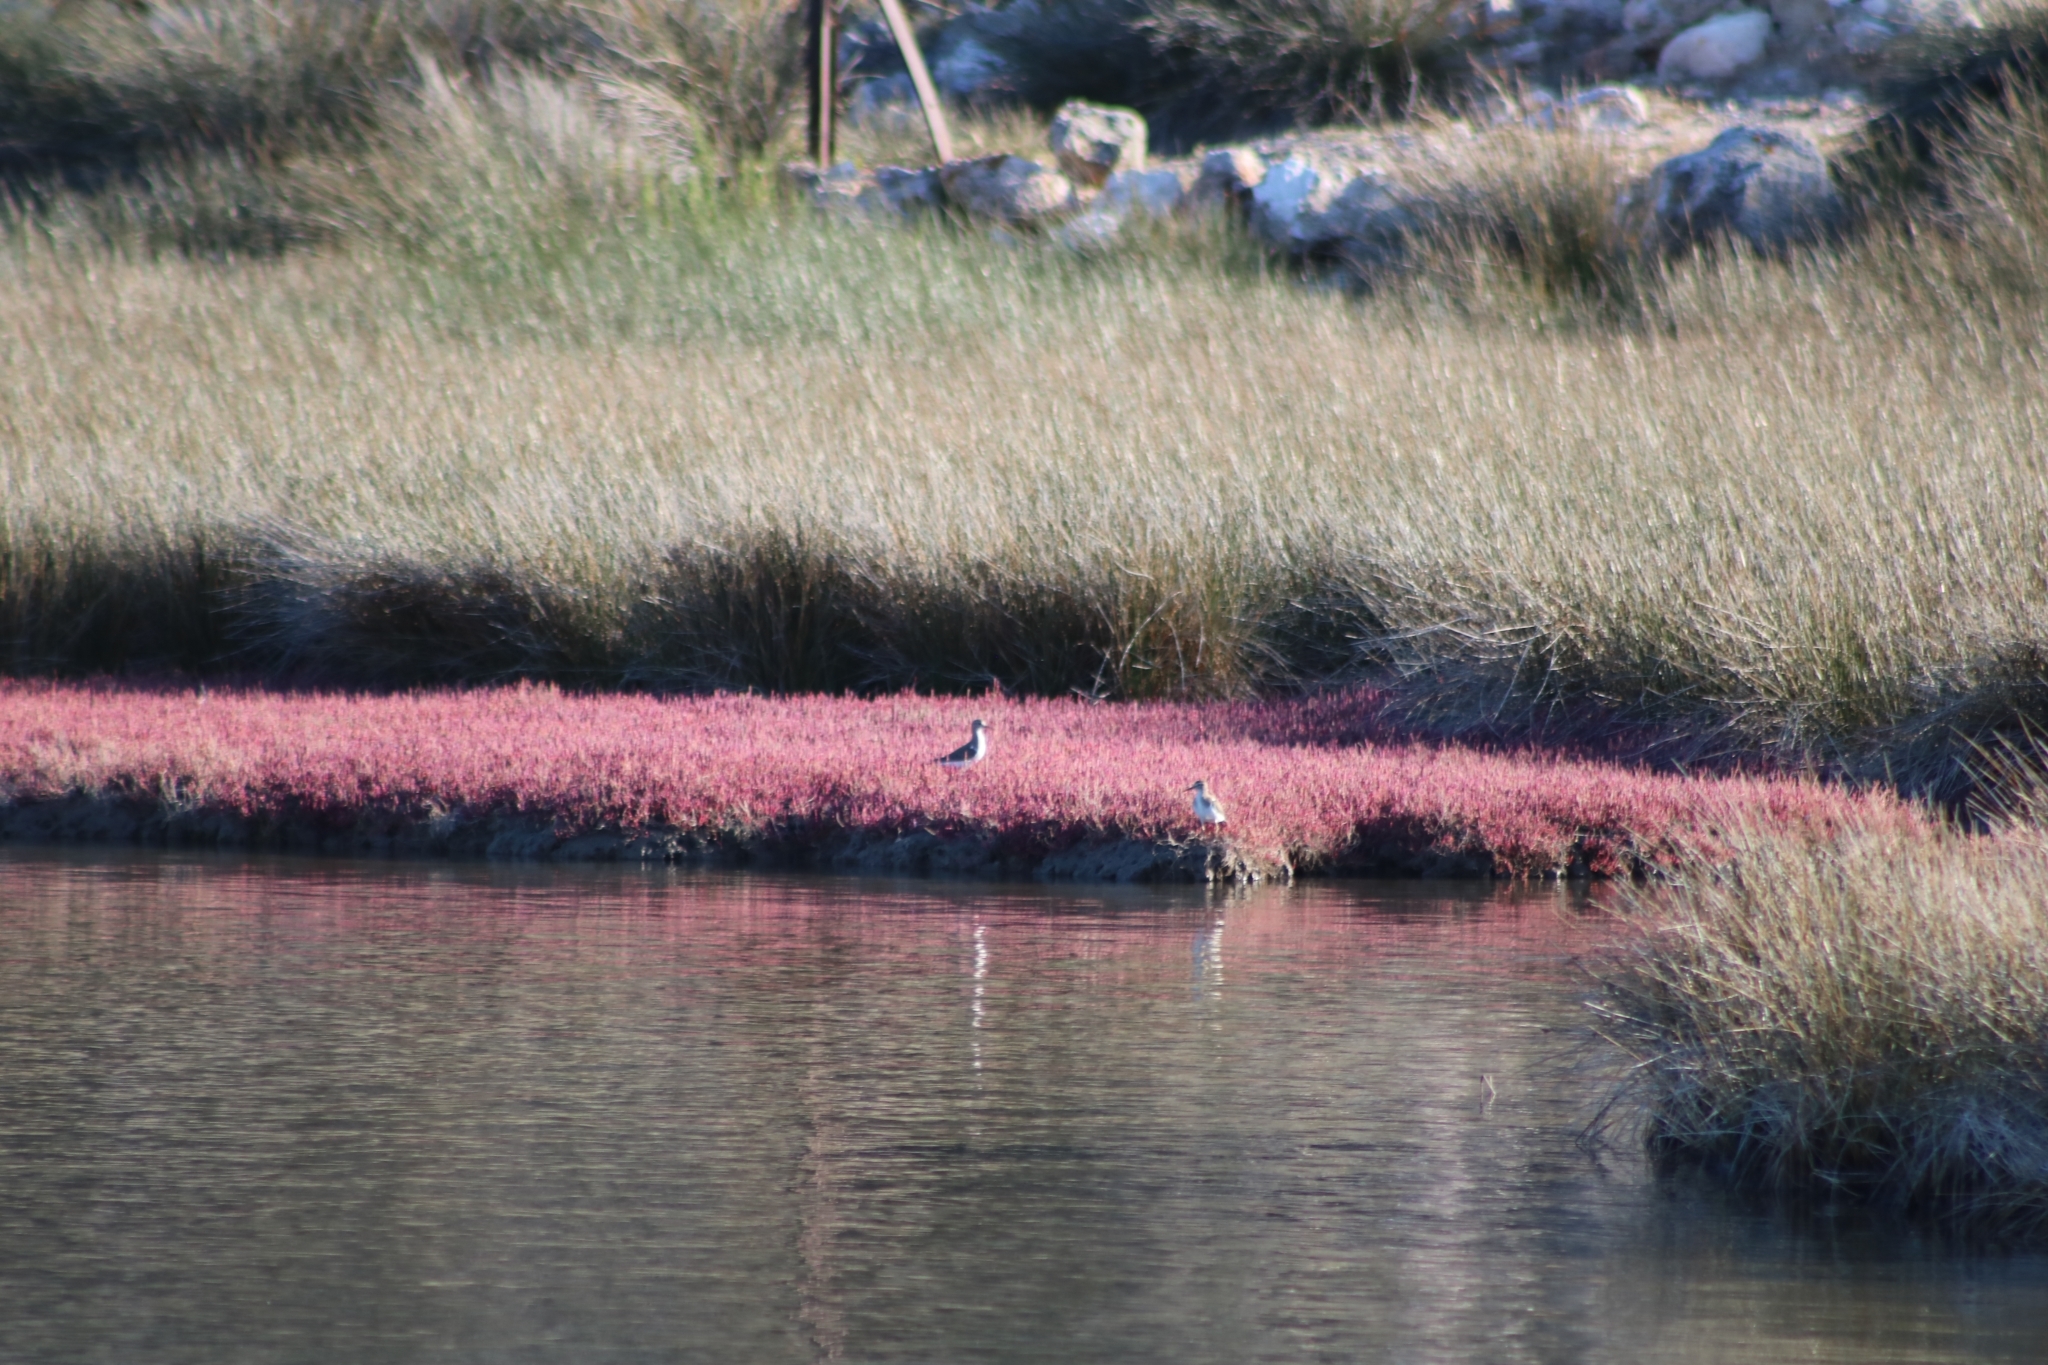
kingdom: Animalia
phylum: Chordata
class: Aves
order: Charadriiformes
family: Scolopacidae
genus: Actitis
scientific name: Actitis hypoleucos
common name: Common sandpiper
